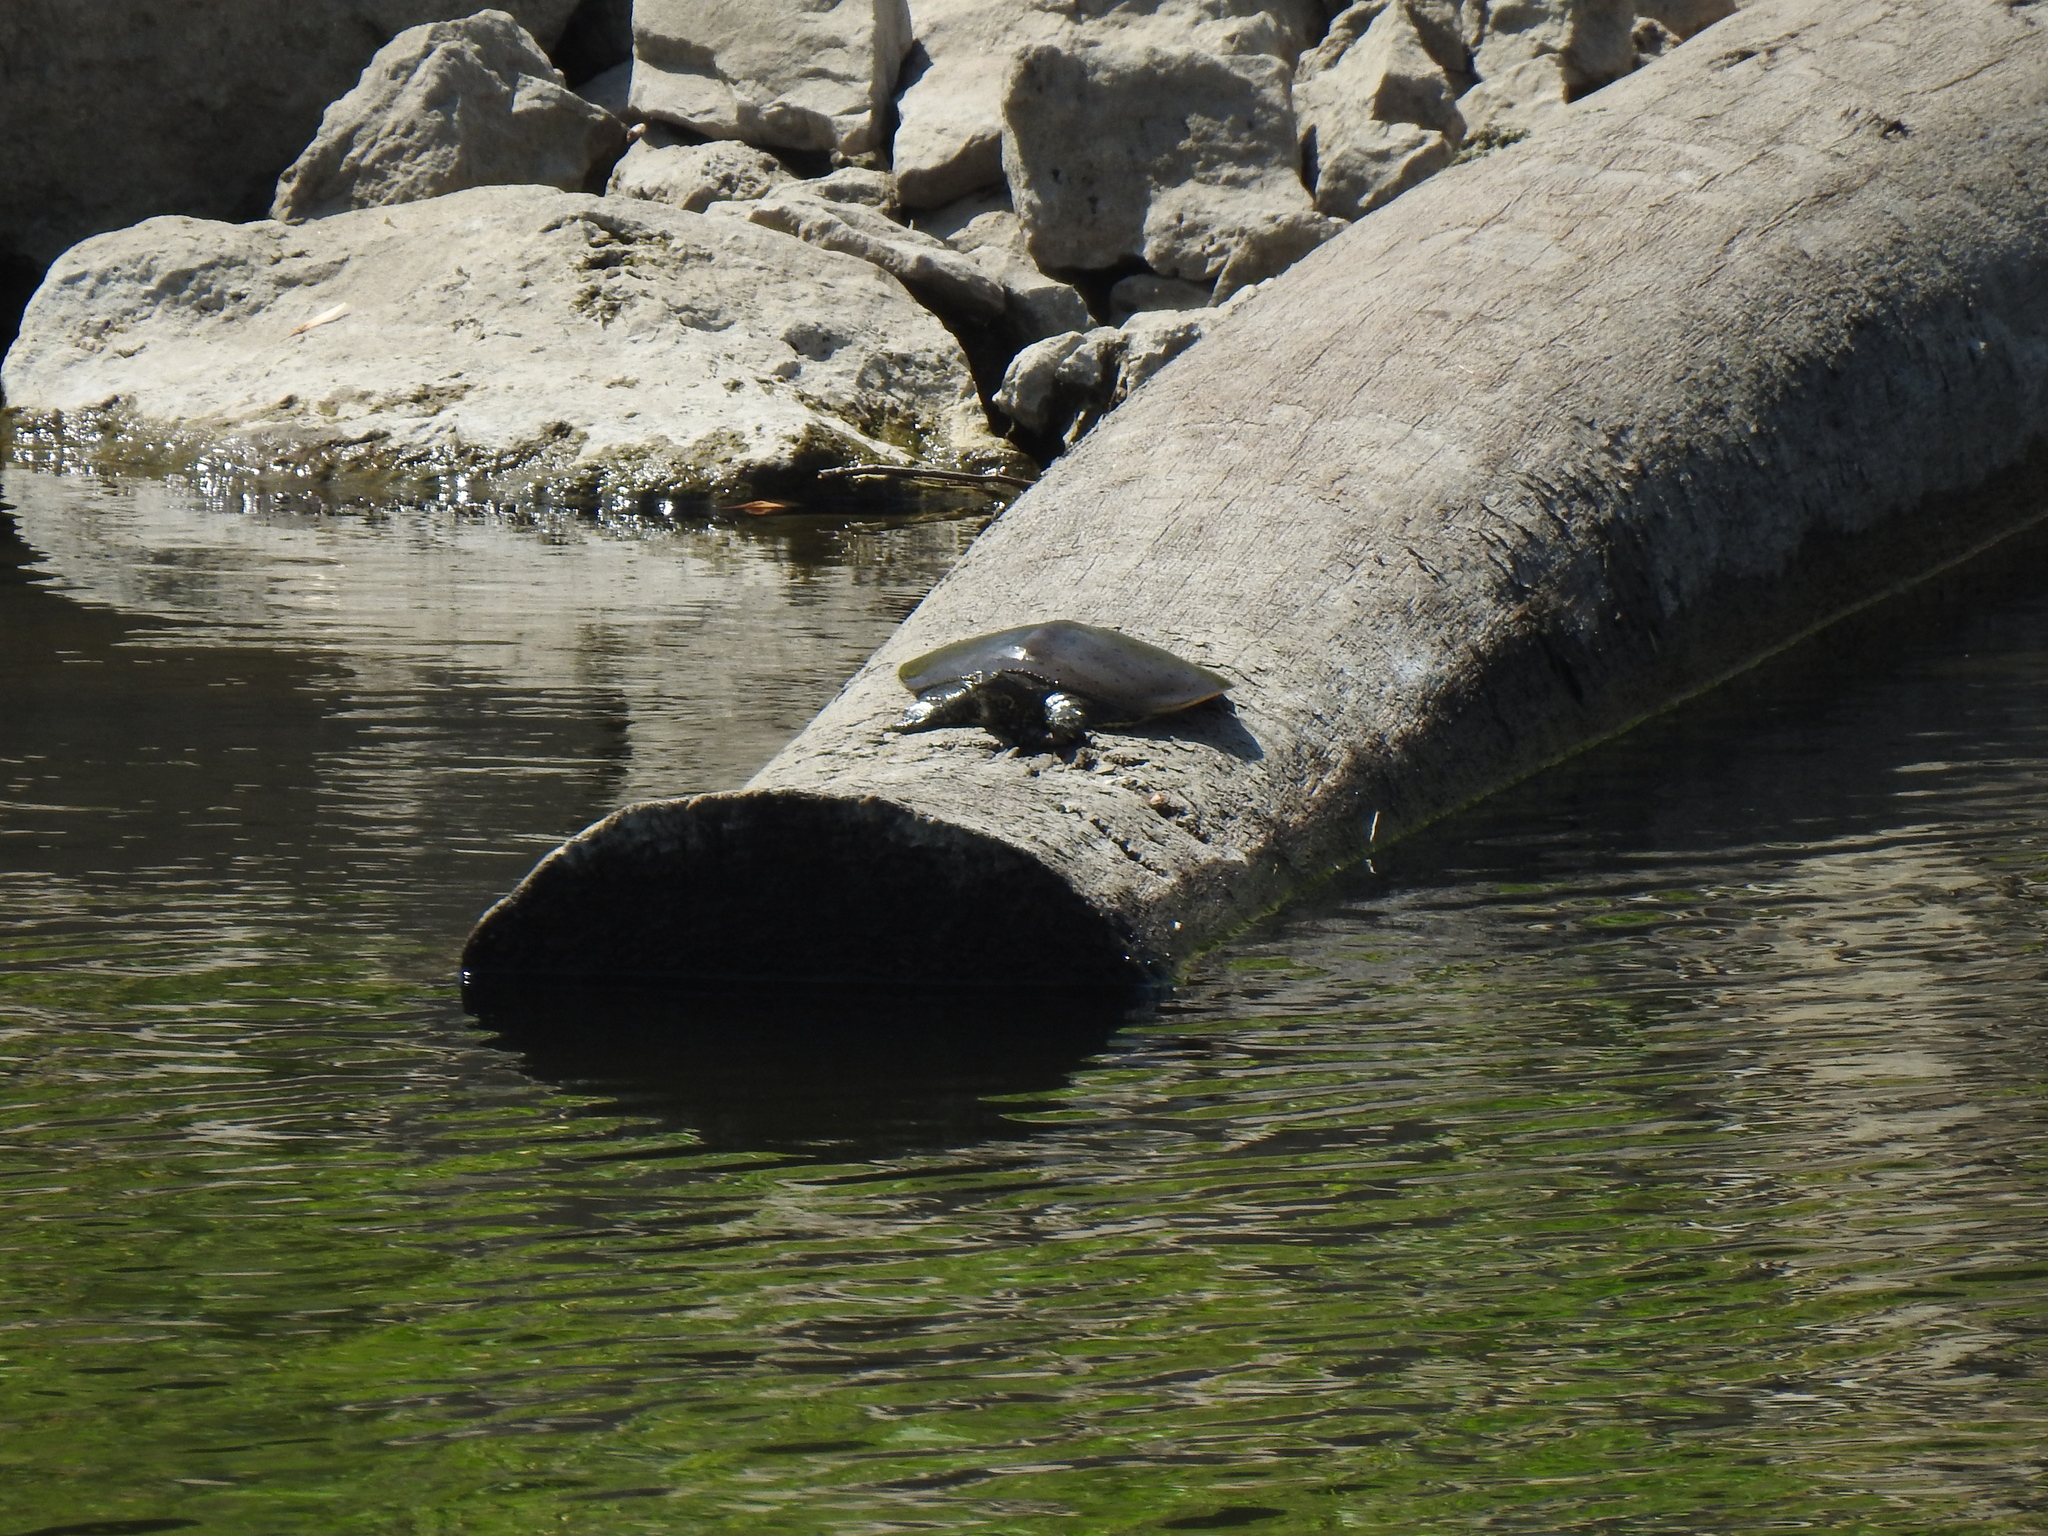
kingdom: Animalia
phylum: Chordata
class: Testudines
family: Trionychidae
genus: Apalone
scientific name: Apalone spinifera
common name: Spiny softshell turtle
